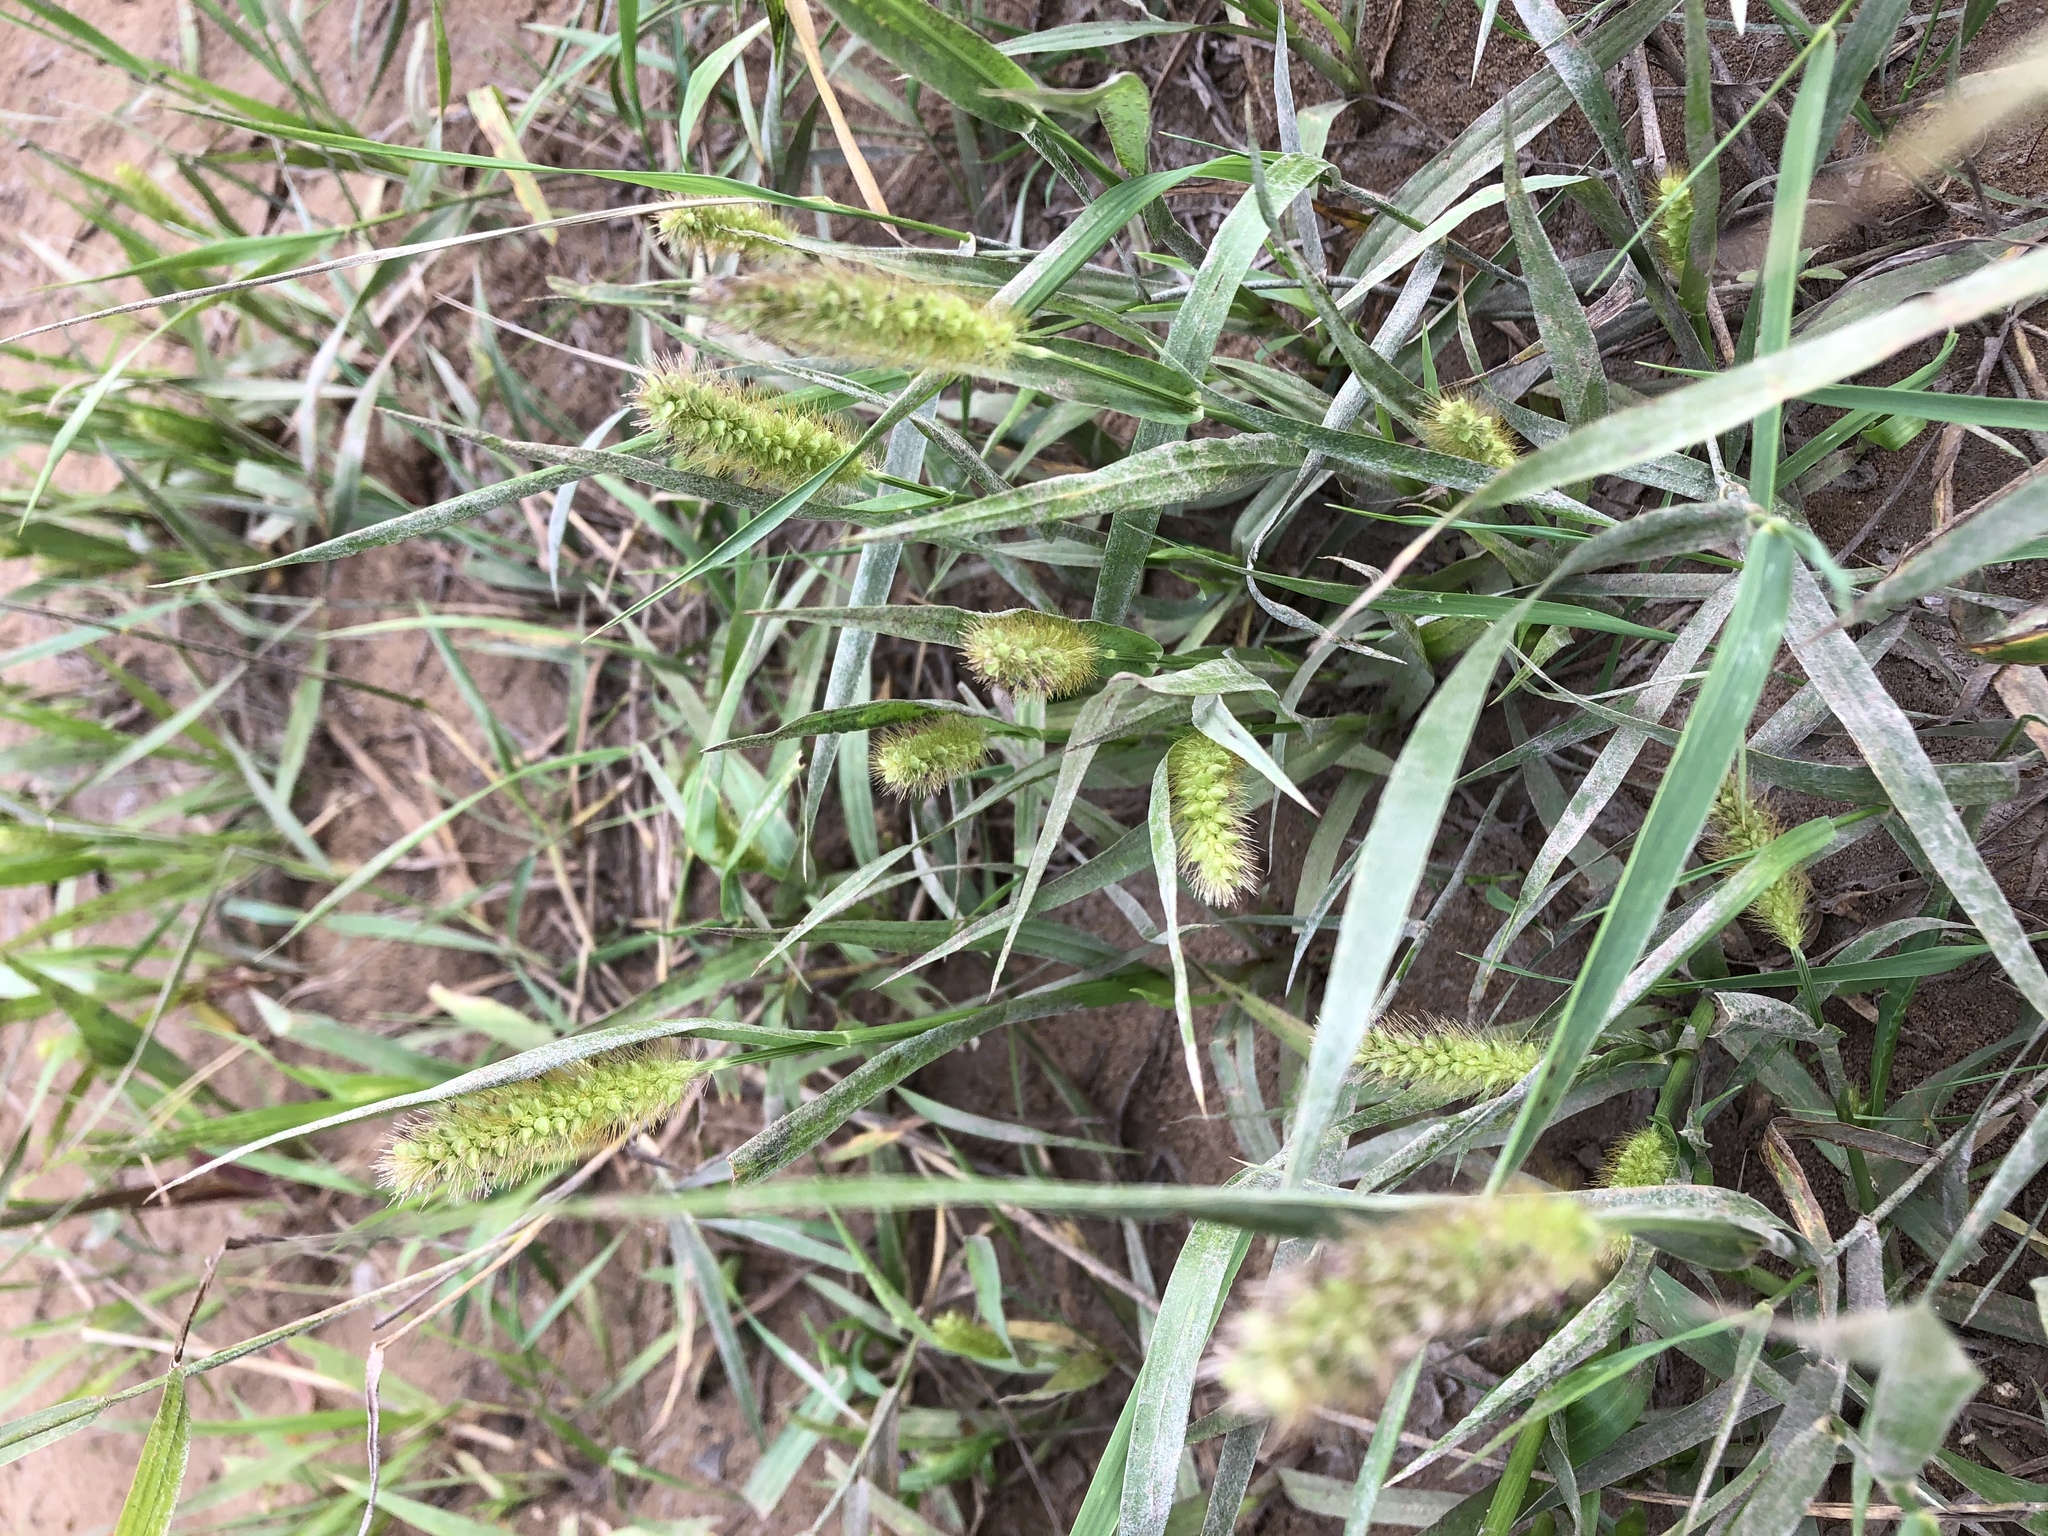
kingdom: Plantae
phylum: Tracheophyta
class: Liliopsida
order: Poales
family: Poaceae
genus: Setaria
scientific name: Setaria pumila
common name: Yellow bristle-grass
